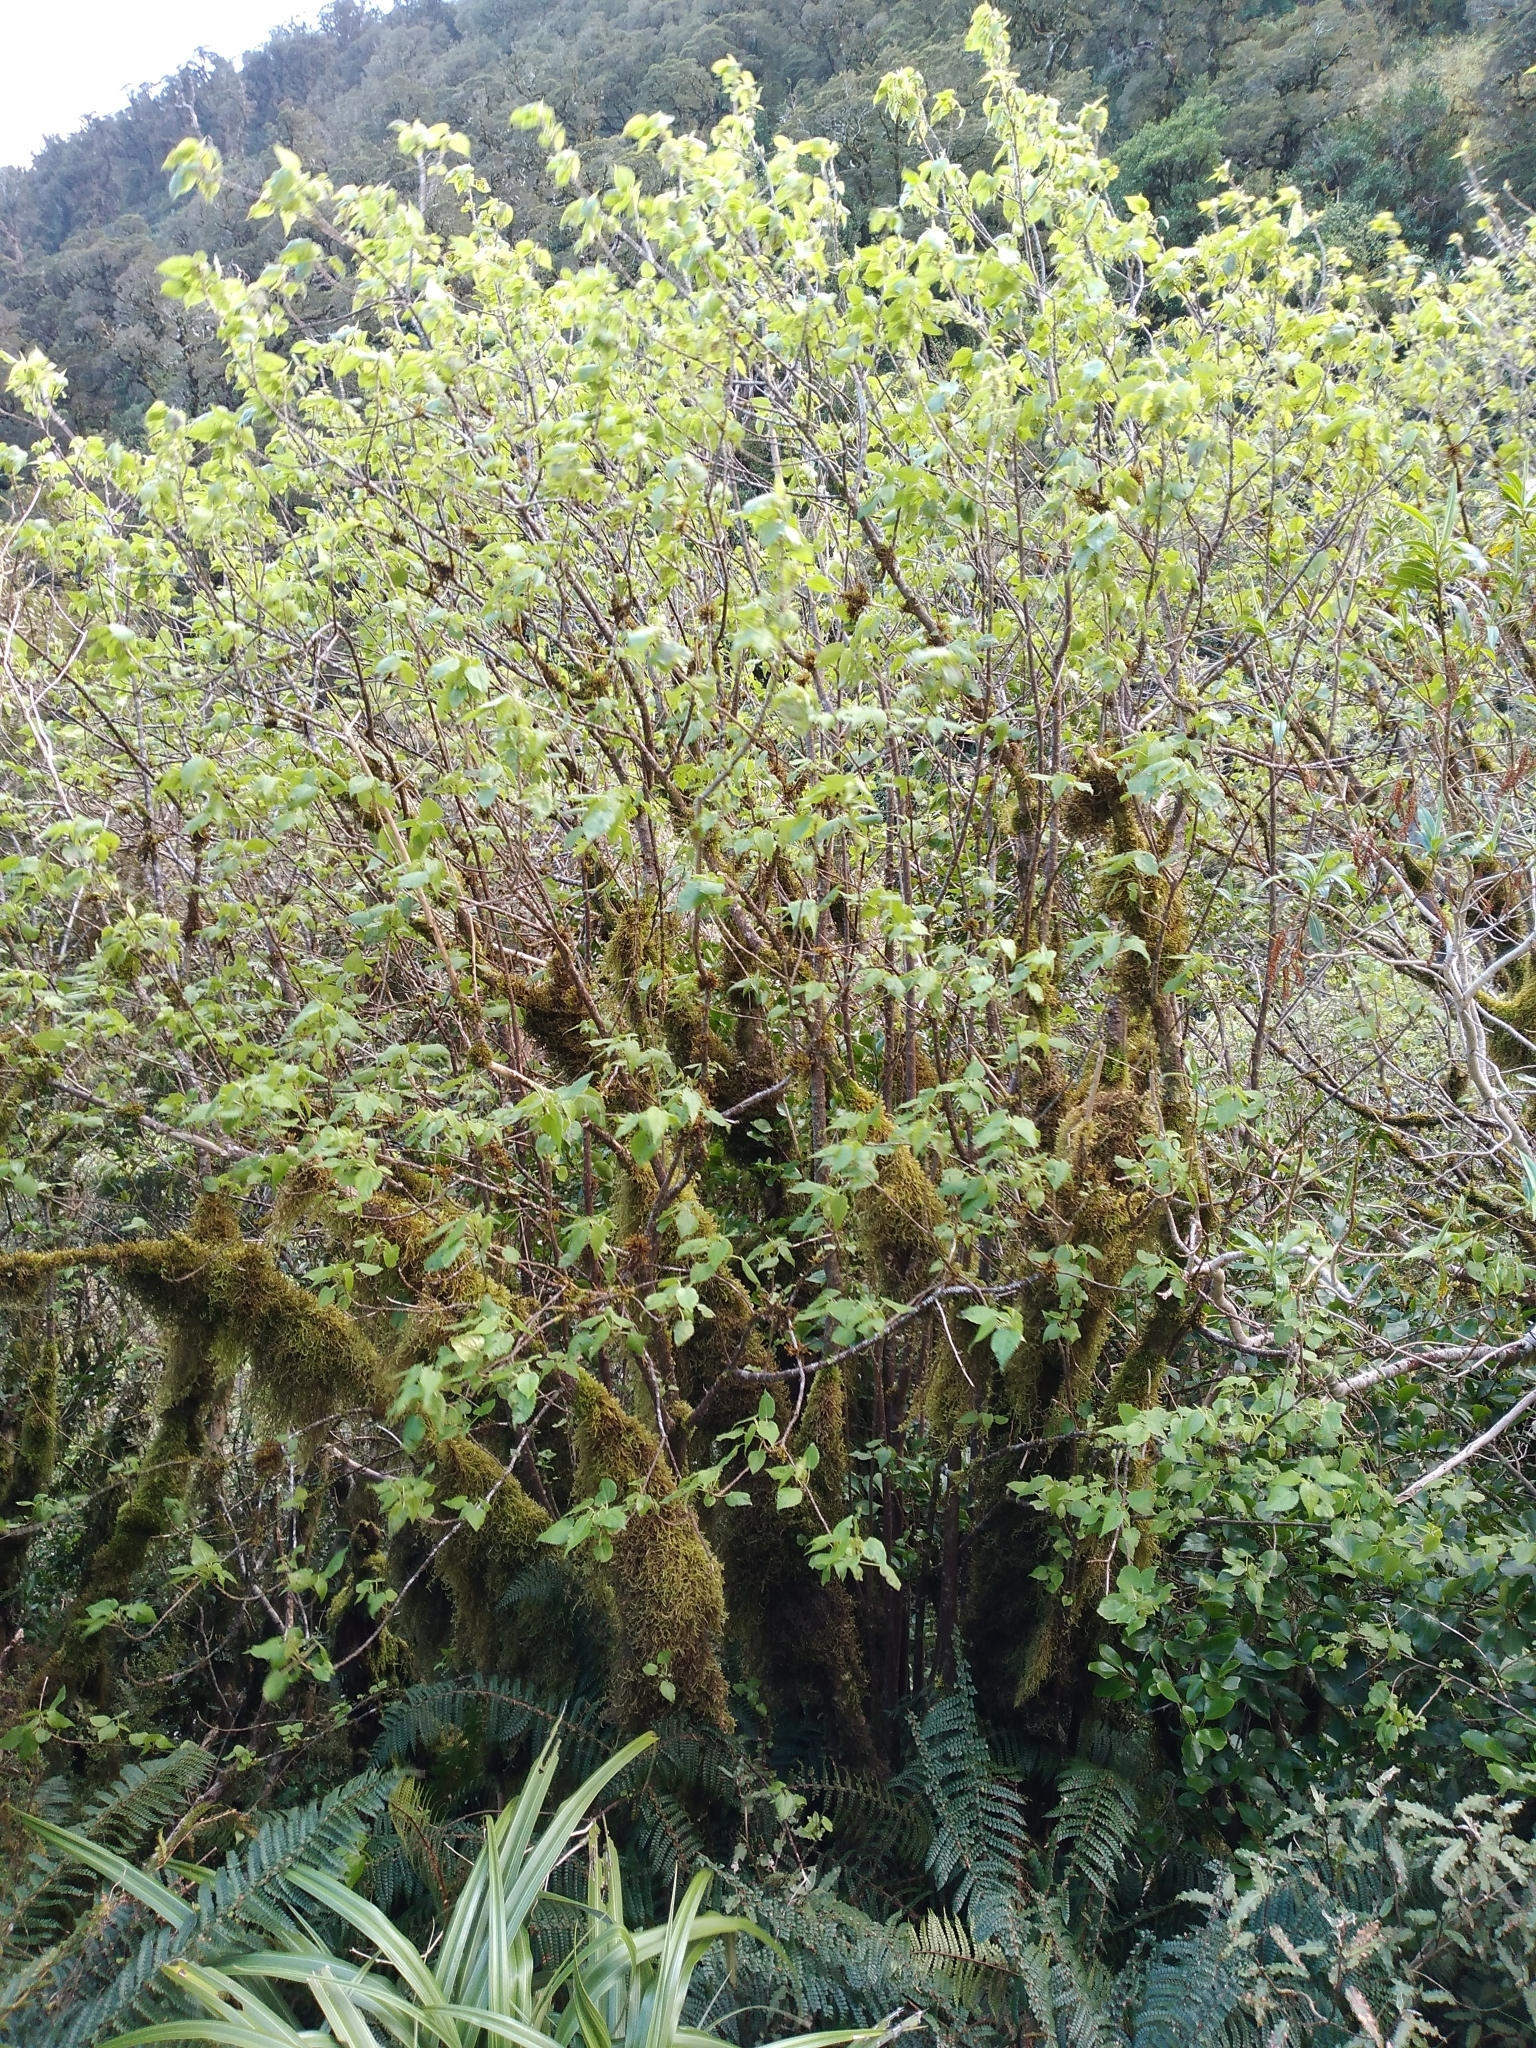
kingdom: Plantae
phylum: Tracheophyta
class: Magnoliopsida
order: Malvales
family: Malvaceae
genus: Hoheria
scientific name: Hoheria glabrata
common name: Mountain-ribbon
